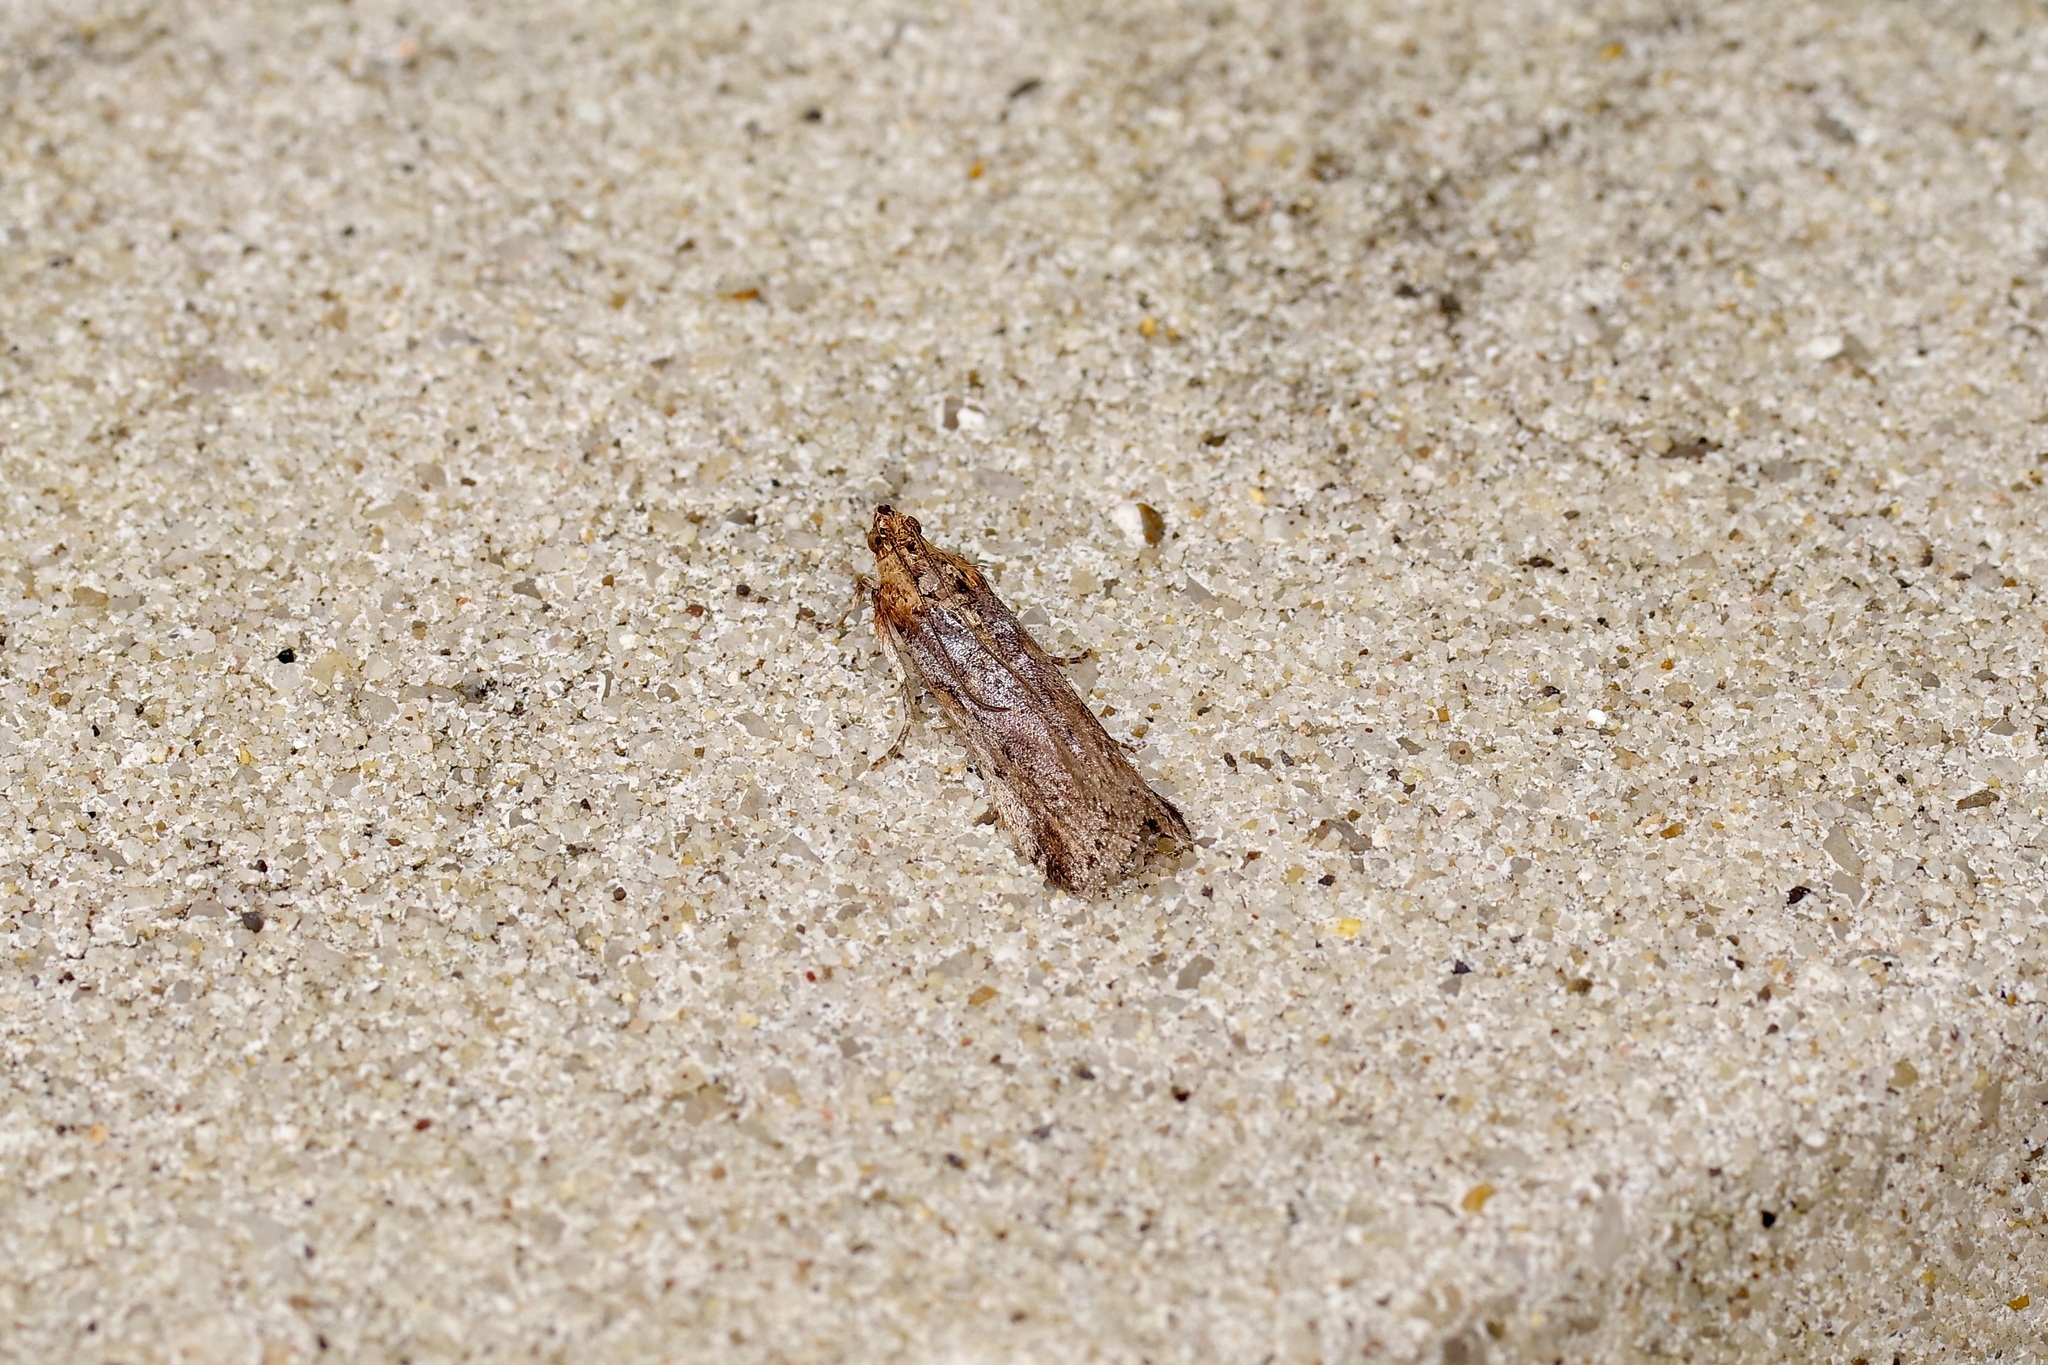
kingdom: Animalia
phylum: Arthropoda
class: Insecta
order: Lepidoptera
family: Pyralidae
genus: Adelphia
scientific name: Adelphia petrella
